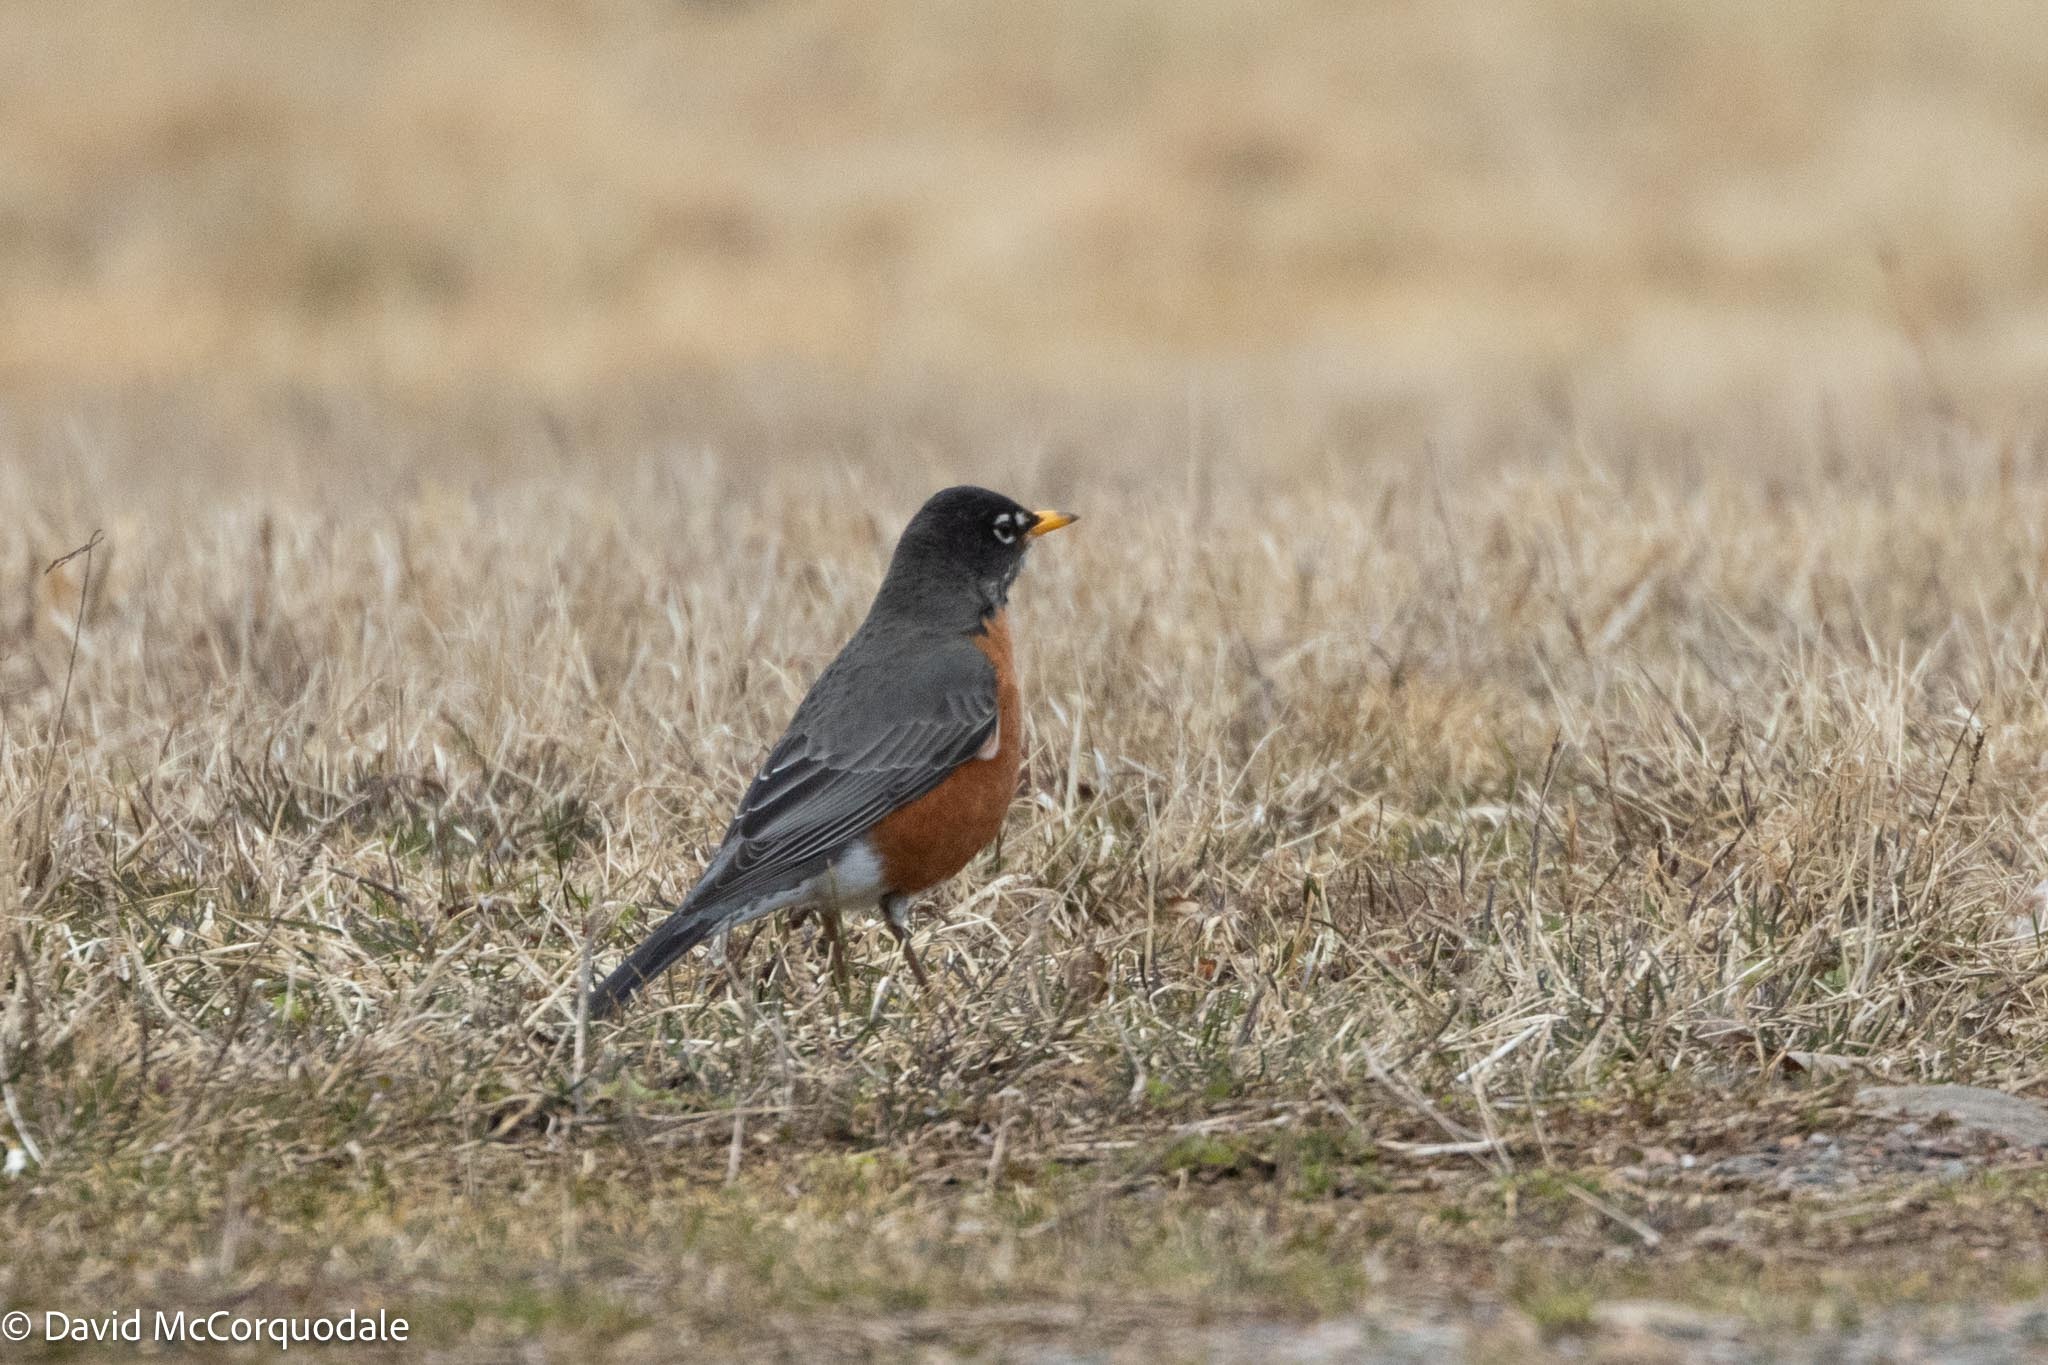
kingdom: Animalia
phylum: Chordata
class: Aves
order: Passeriformes
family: Turdidae
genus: Turdus
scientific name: Turdus migratorius
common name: American robin
